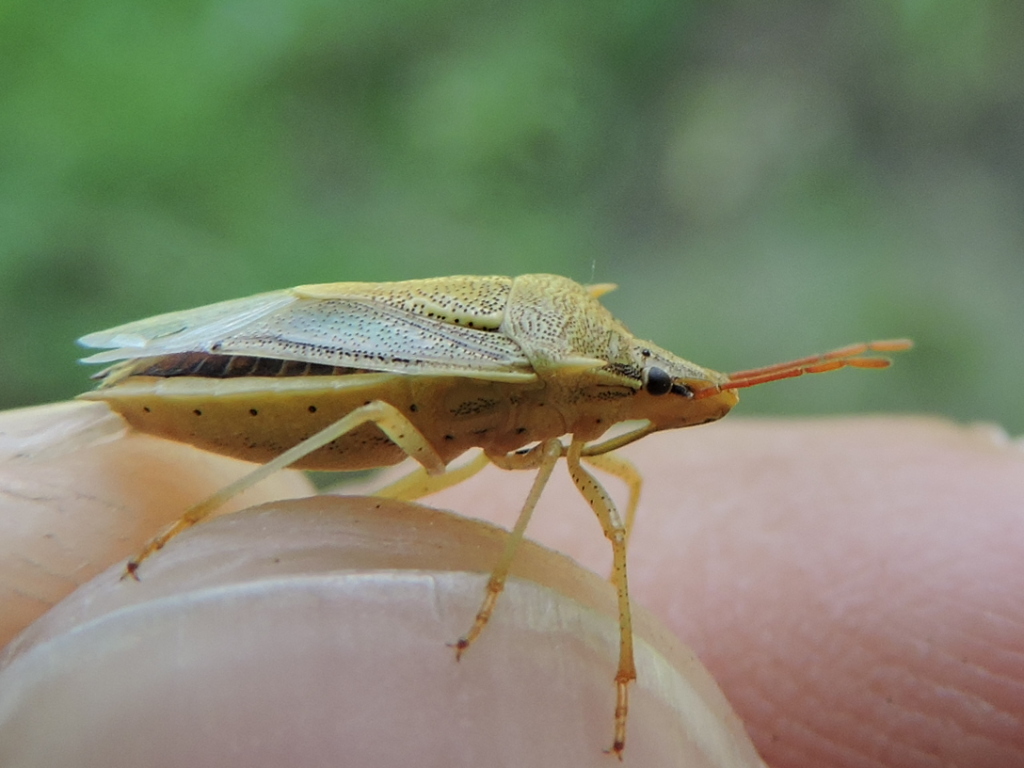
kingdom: Animalia
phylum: Arthropoda
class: Insecta
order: Hemiptera
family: Pentatomidae
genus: Oebalus
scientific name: Oebalus pugnax
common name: Rice stink bug
